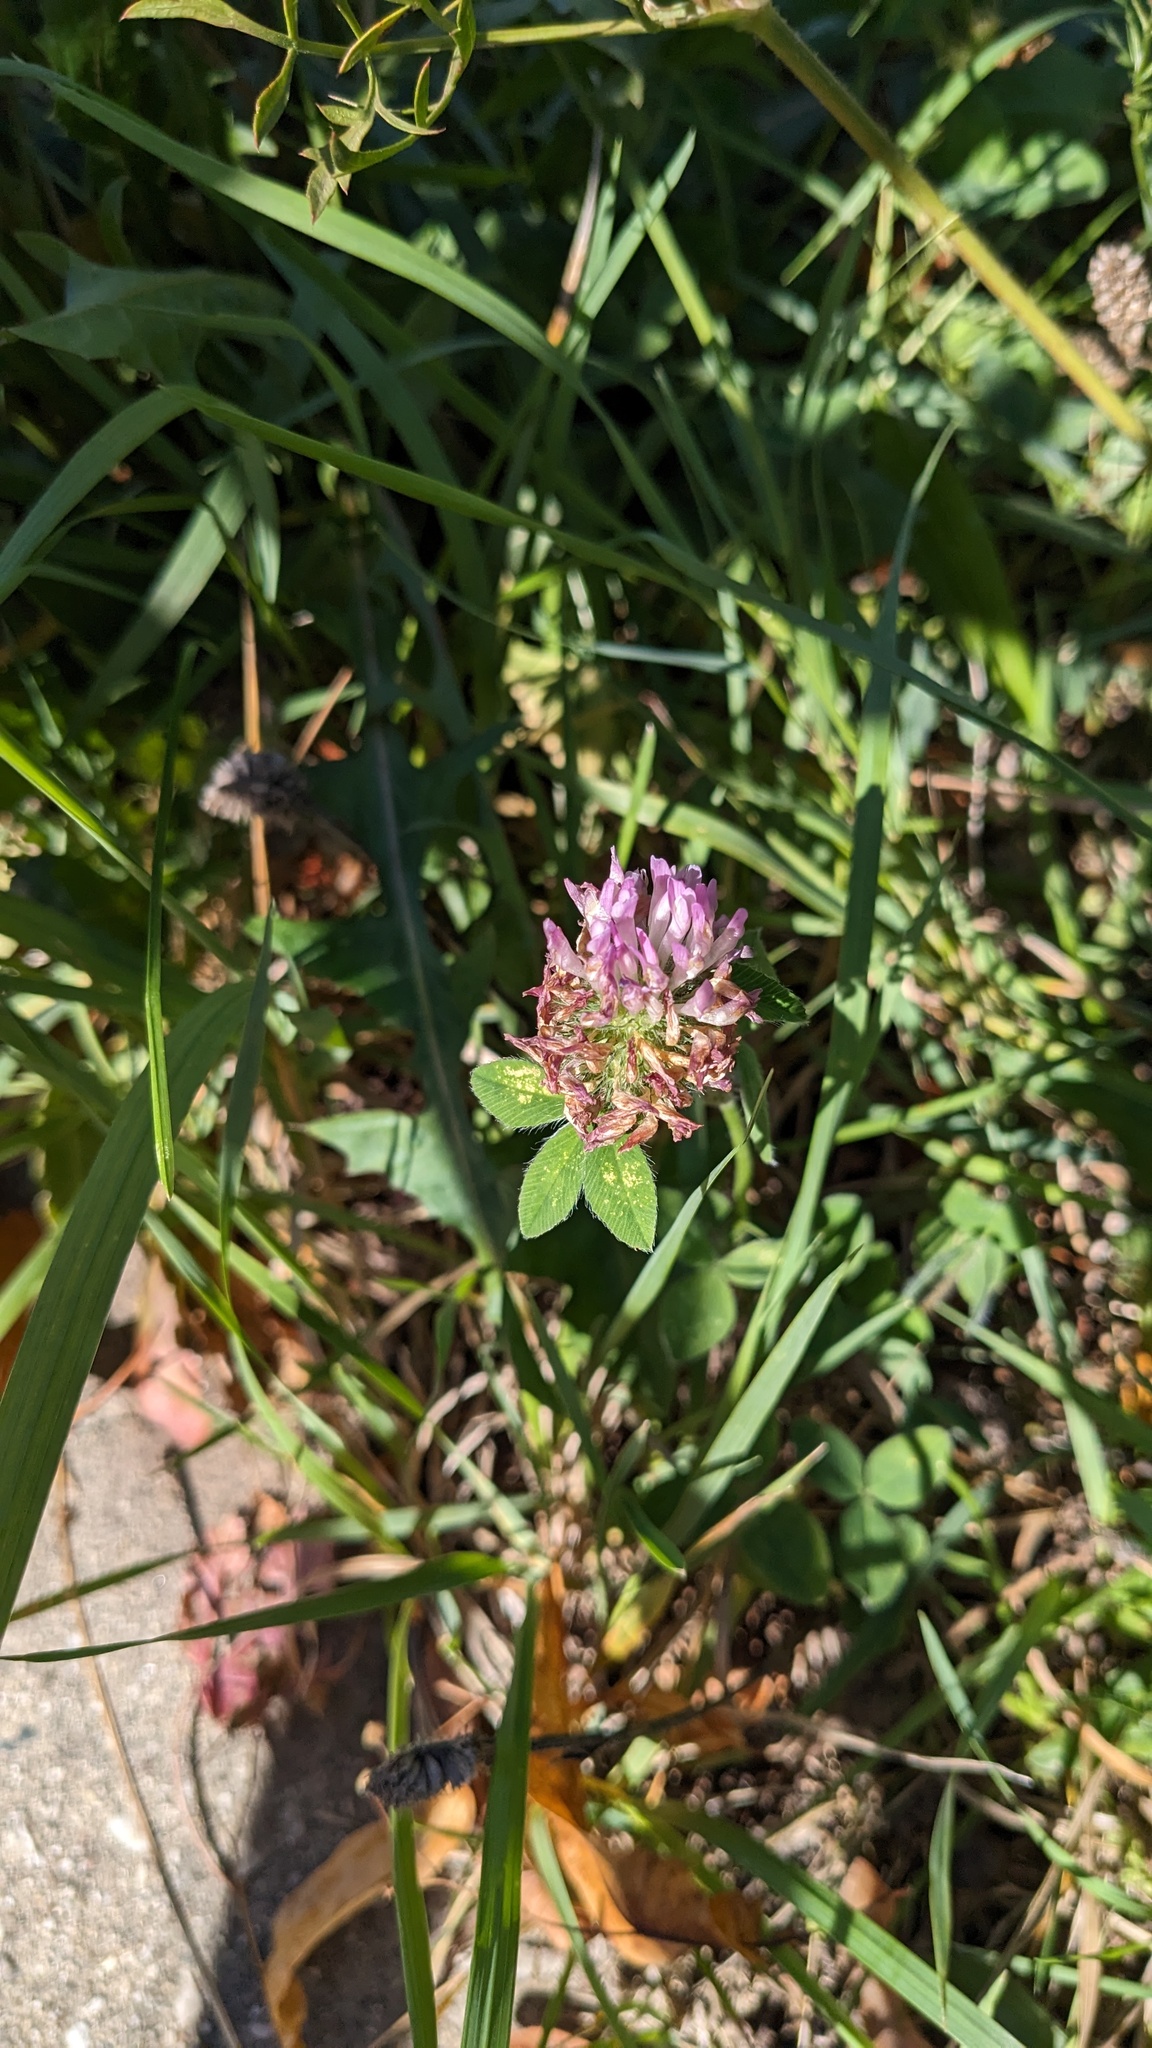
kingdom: Plantae
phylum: Tracheophyta
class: Magnoliopsida
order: Fabales
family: Fabaceae
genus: Trifolium
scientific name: Trifolium pratense
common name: Red clover
